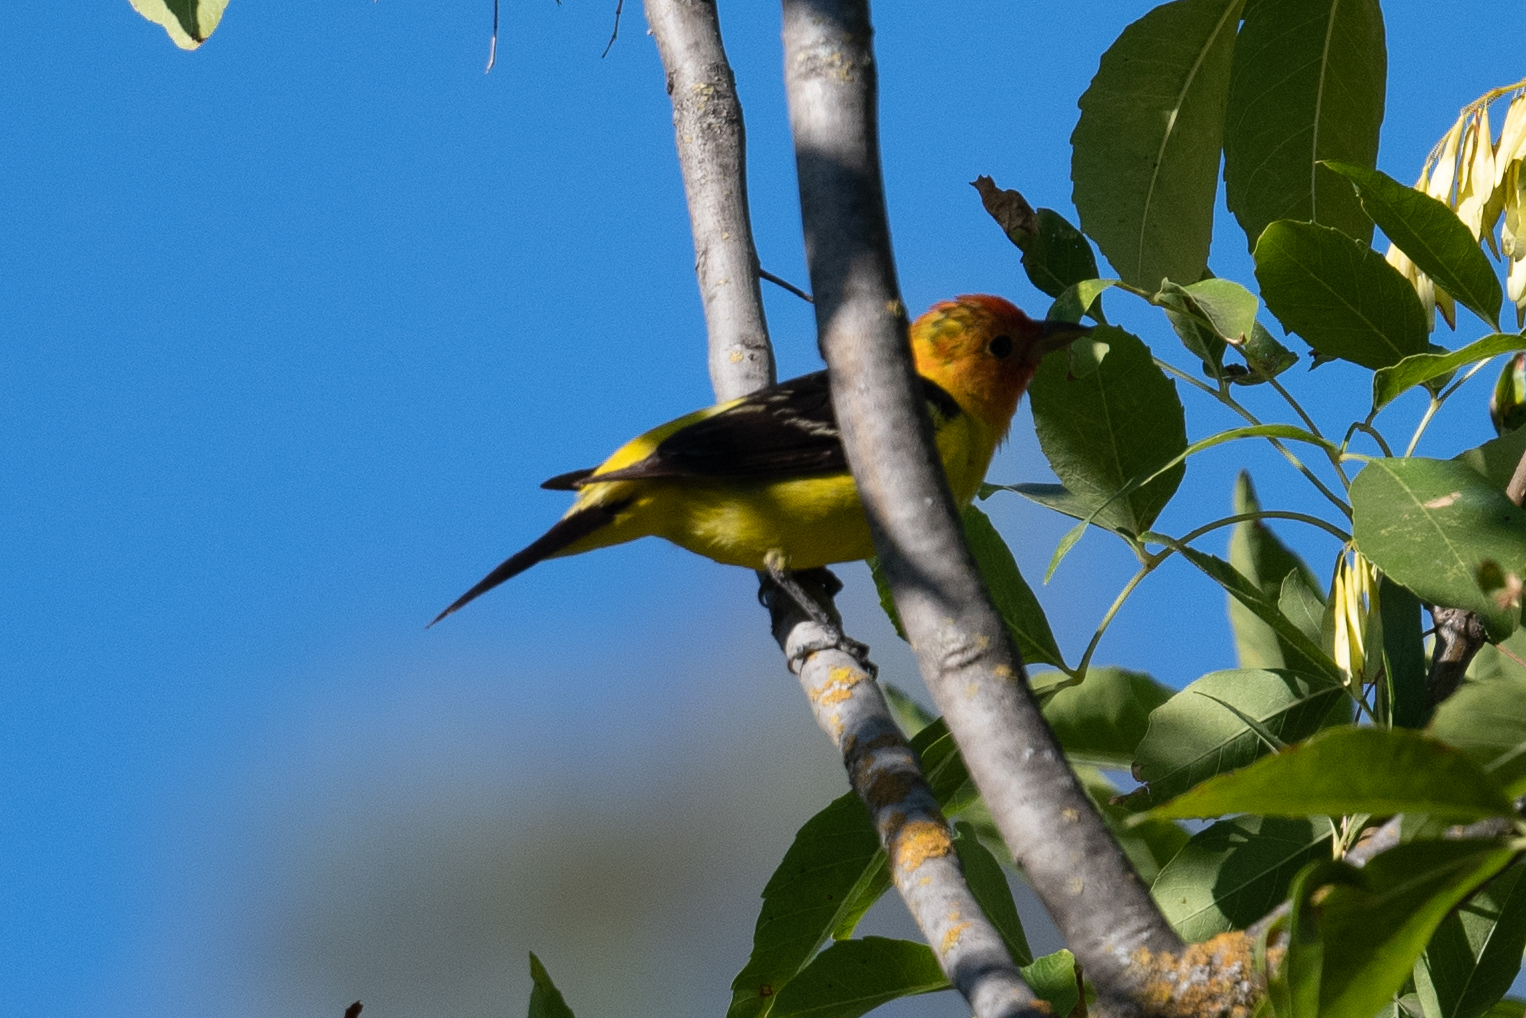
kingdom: Animalia
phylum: Chordata
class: Aves
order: Passeriformes
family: Cardinalidae
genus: Piranga
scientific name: Piranga ludoviciana
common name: Western tanager
